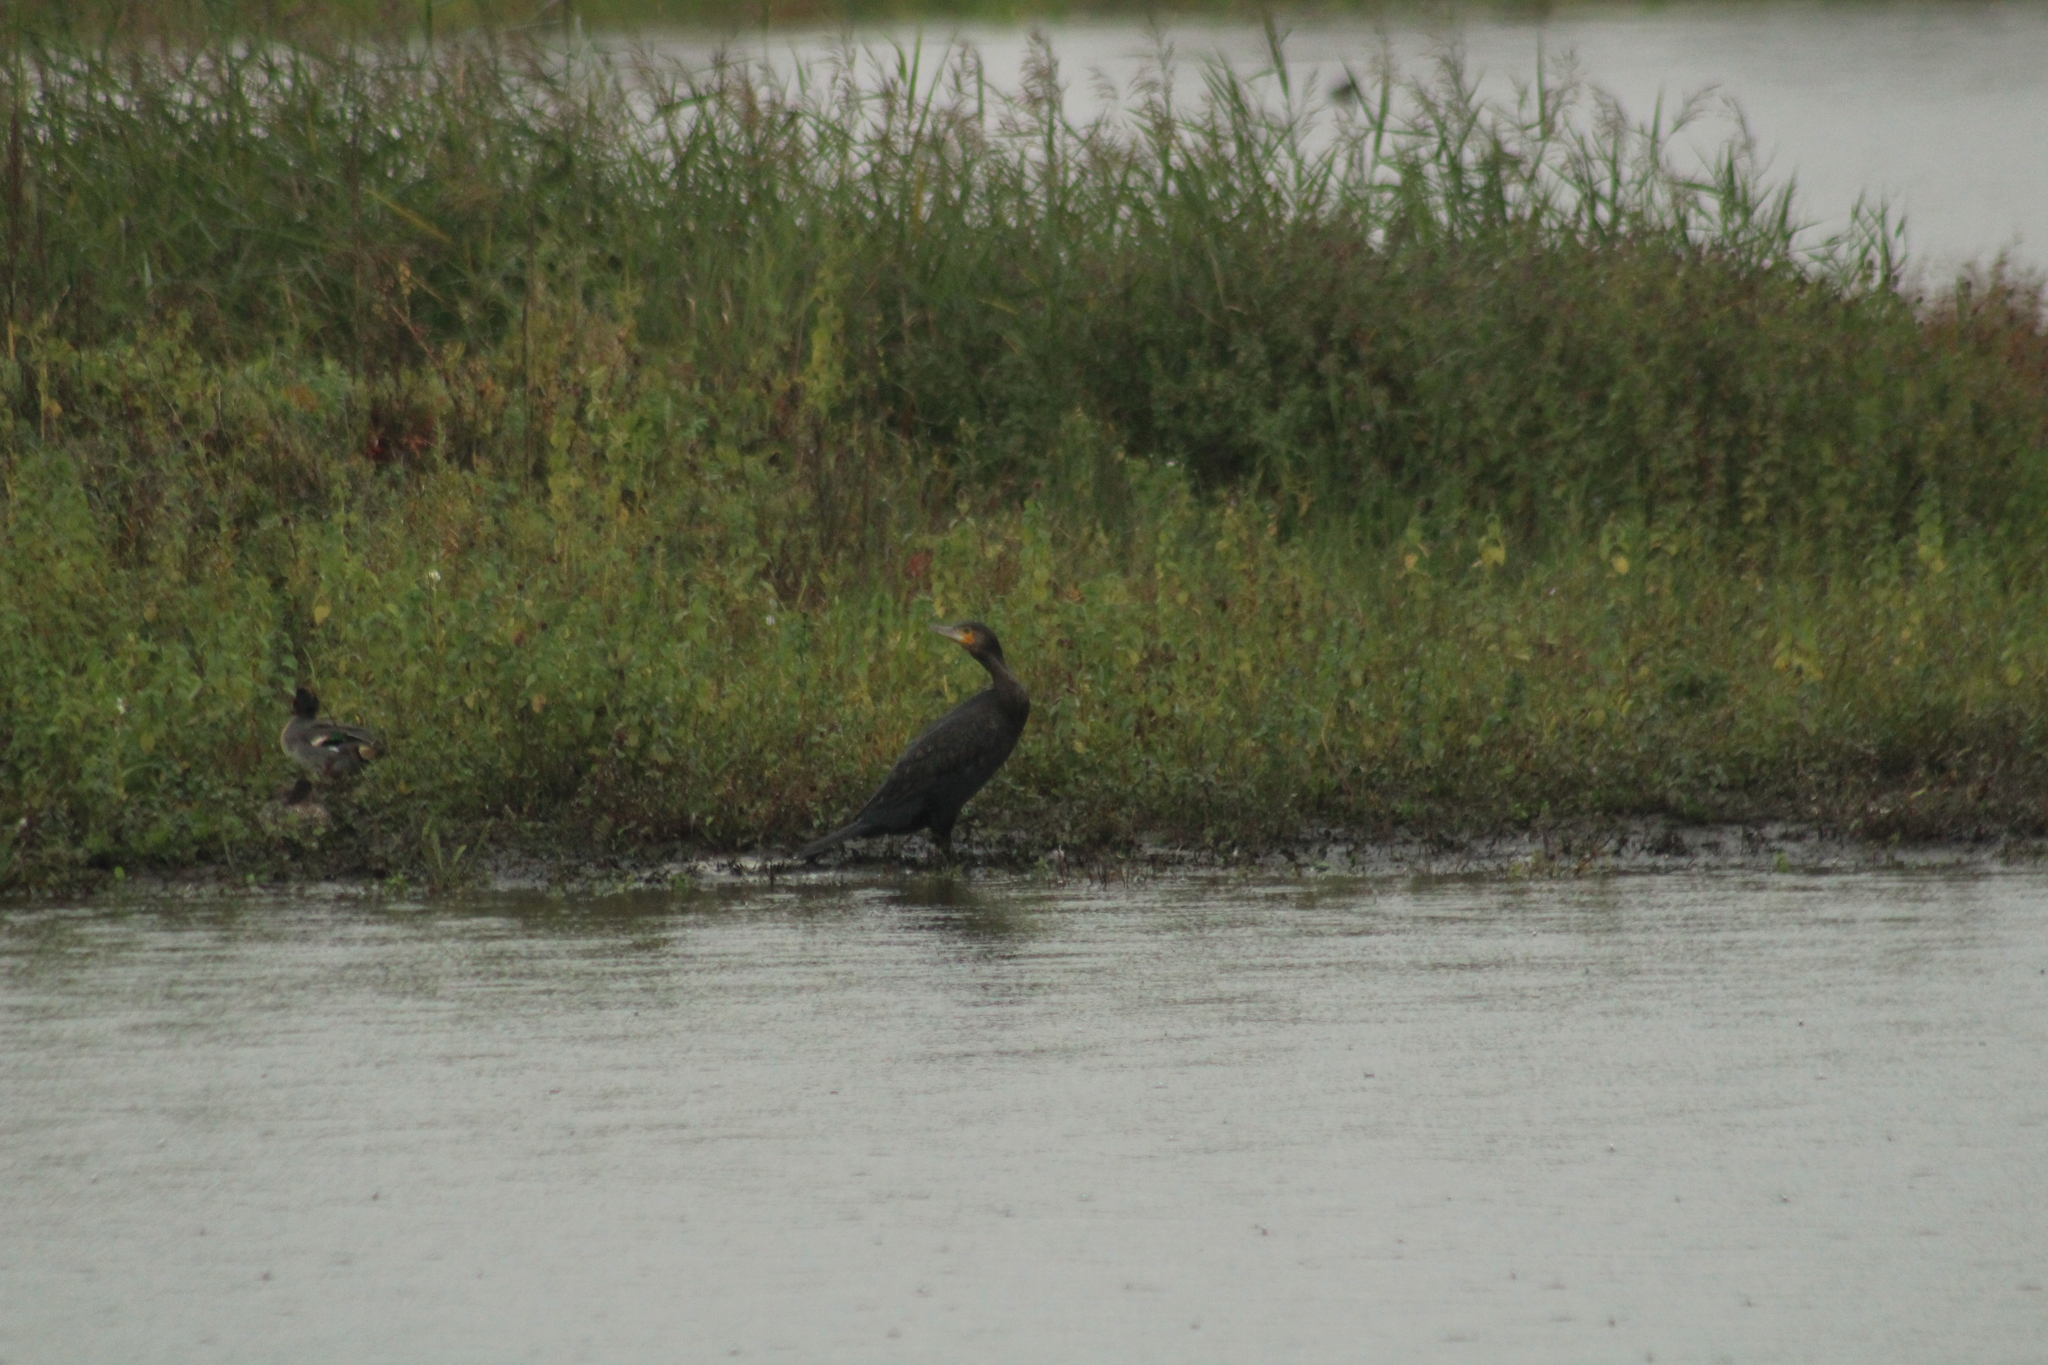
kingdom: Animalia
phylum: Chordata
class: Aves
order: Suliformes
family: Phalacrocoracidae
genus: Phalacrocorax
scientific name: Phalacrocorax carbo
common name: Great cormorant
